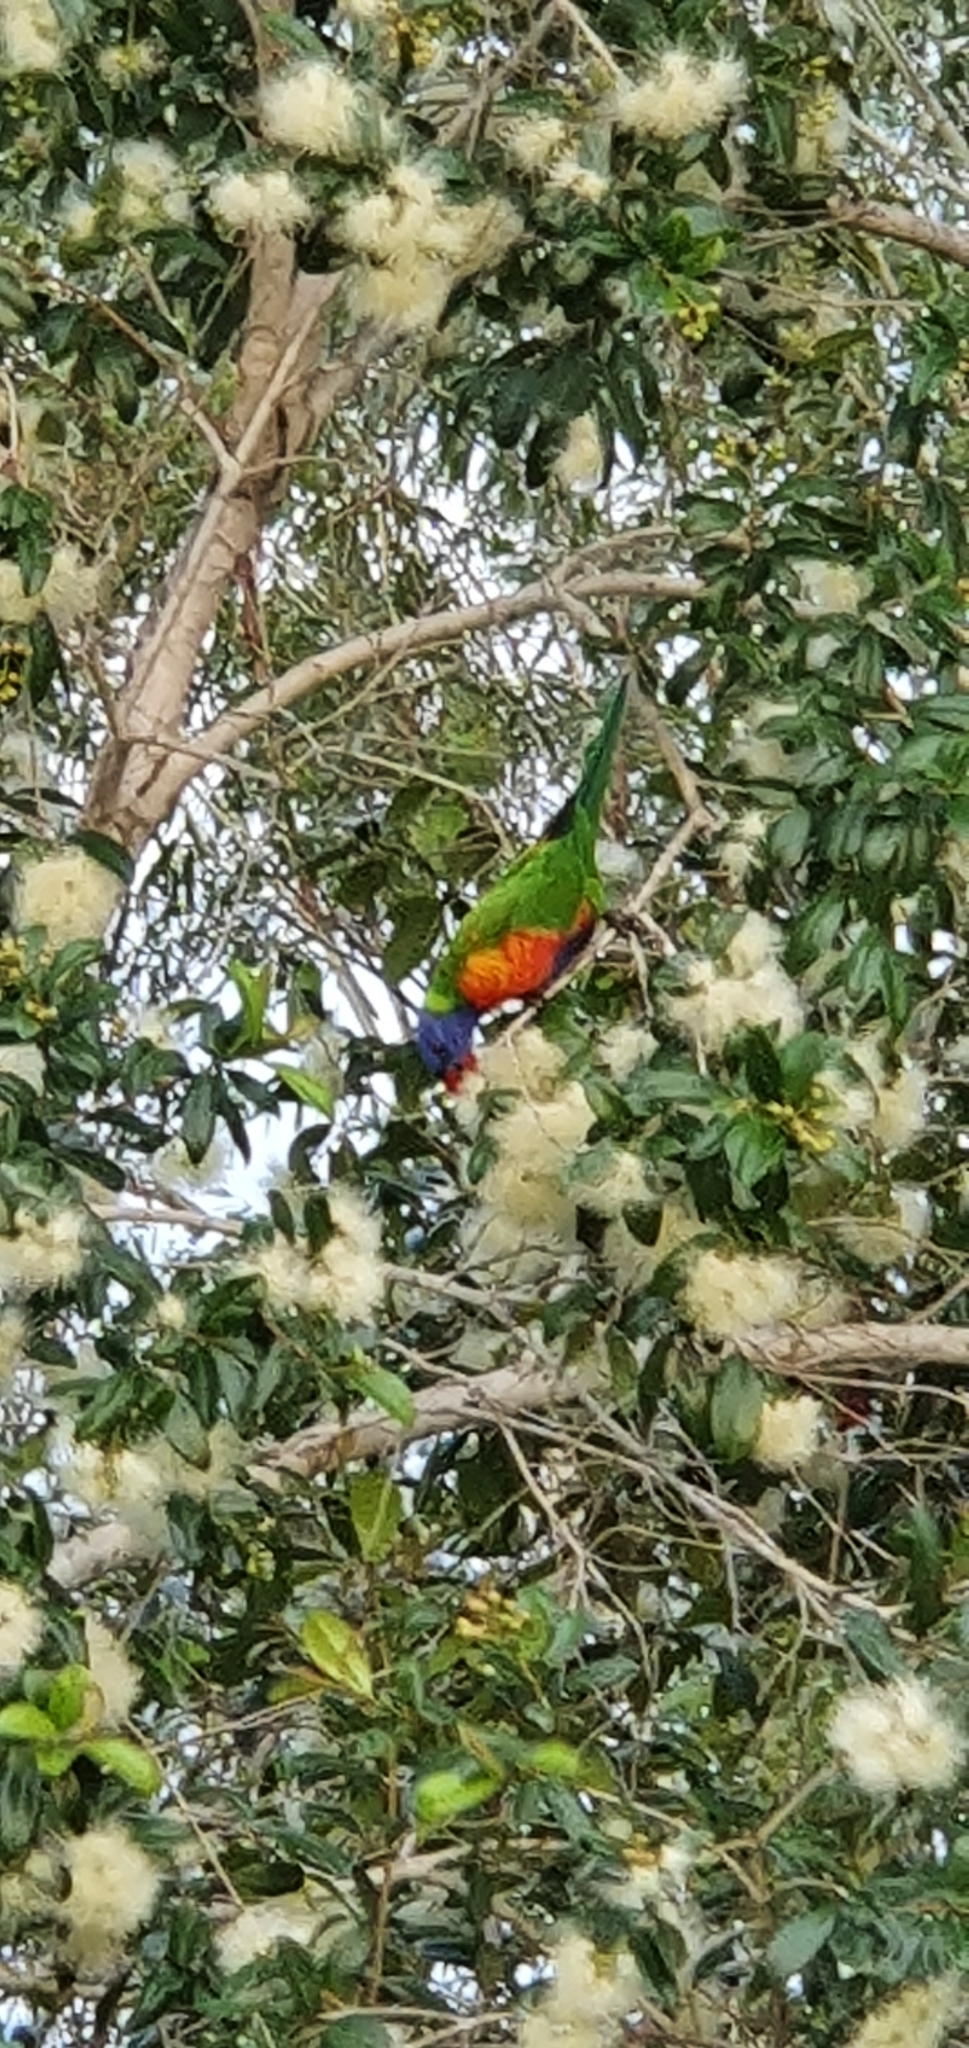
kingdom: Animalia
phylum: Chordata
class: Aves
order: Psittaciformes
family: Psittacidae
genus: Trichoglossus
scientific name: Trichoglossus haematodus
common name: Coconut lorikeet
